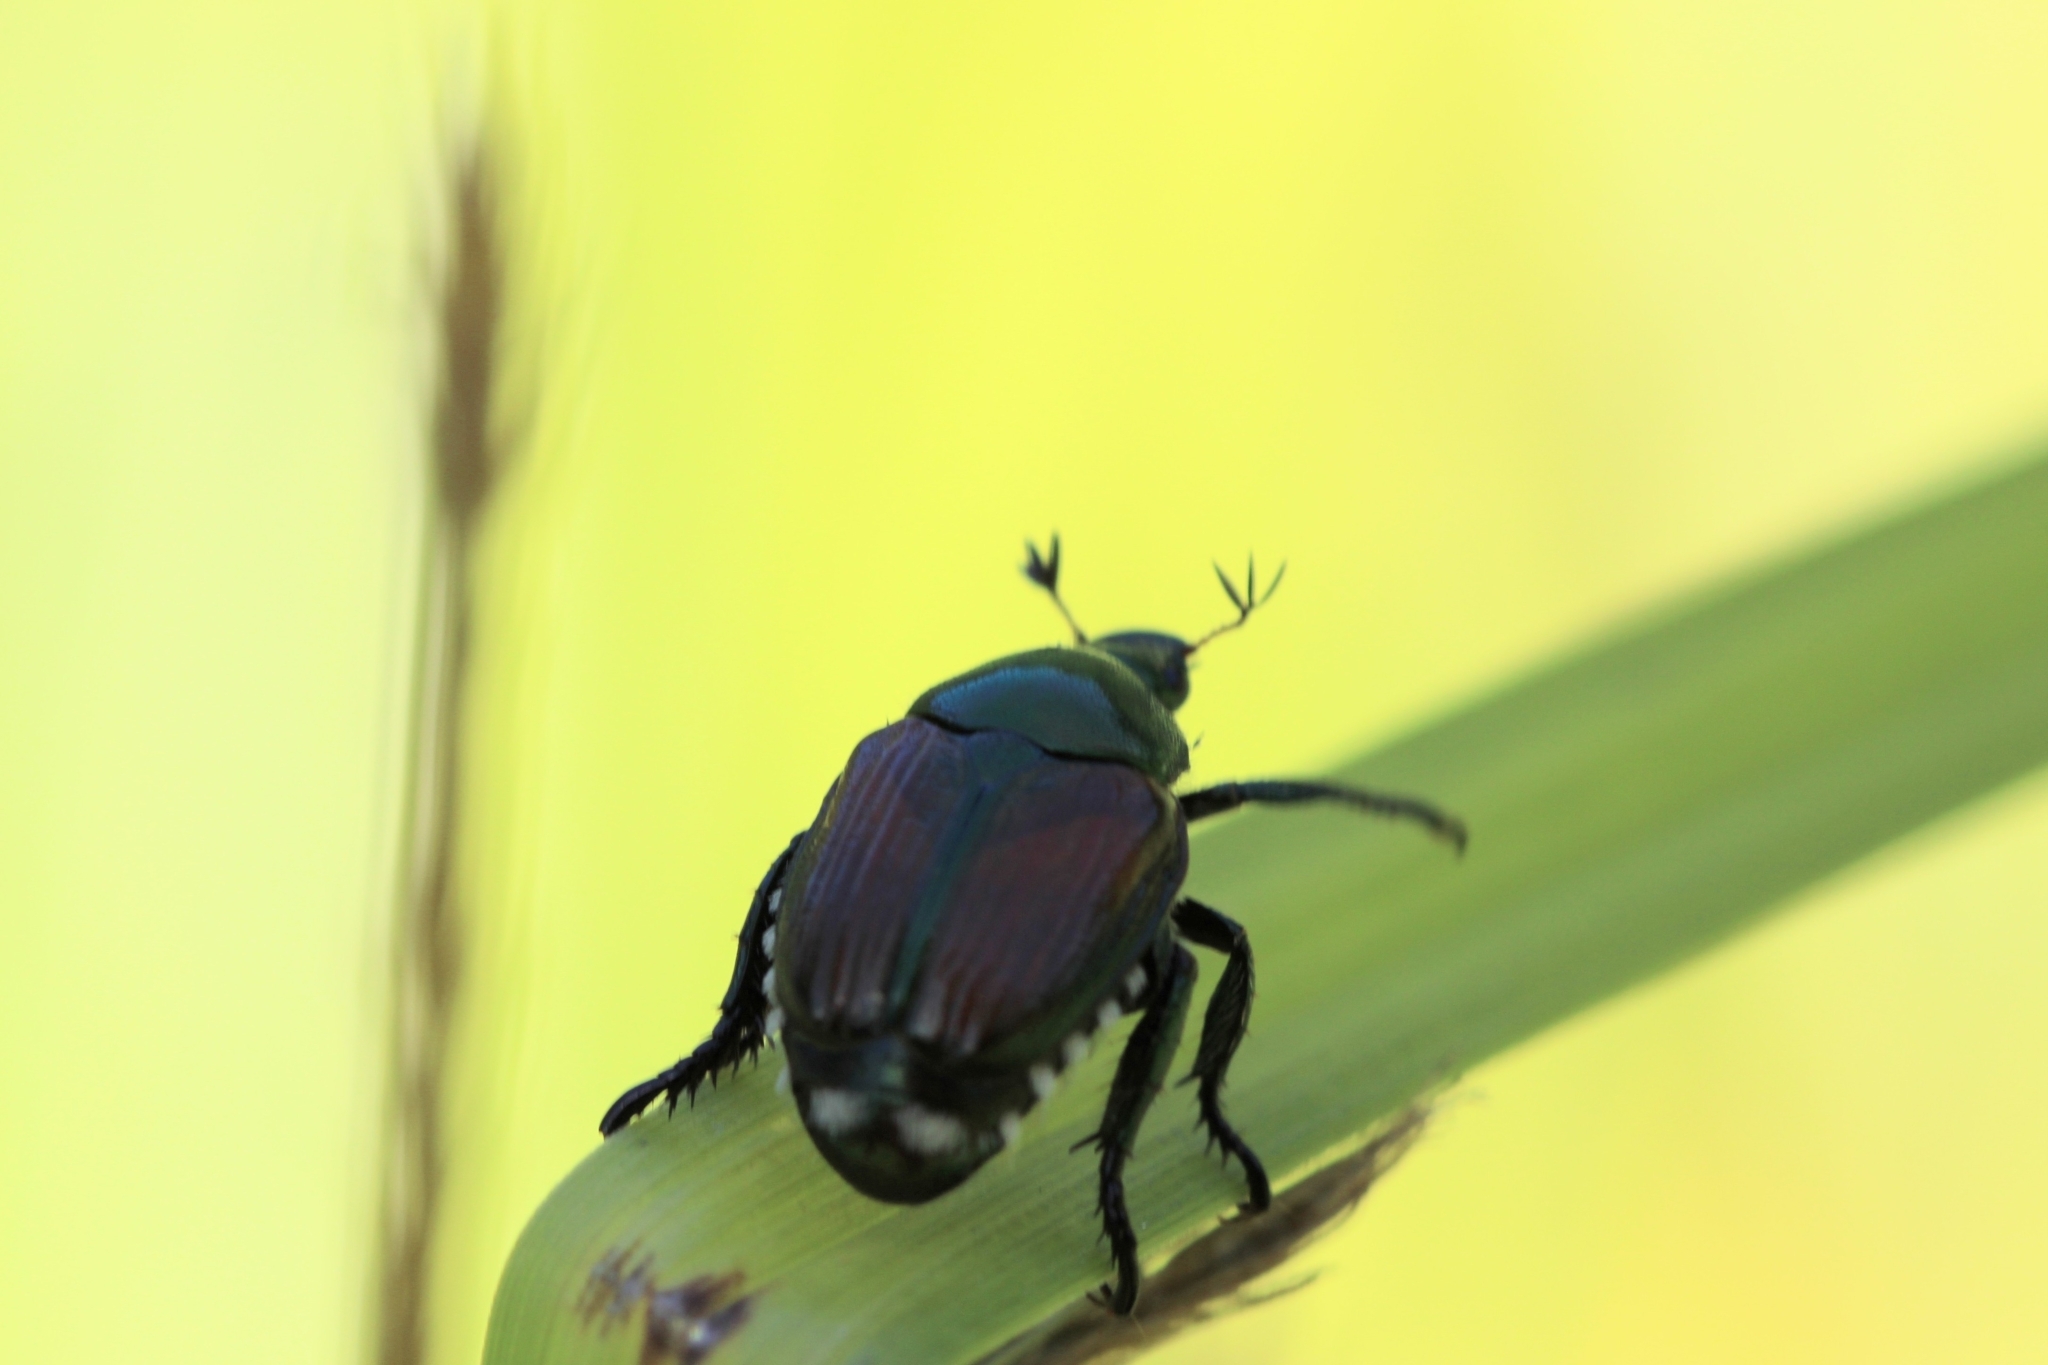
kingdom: Animalia
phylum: Arthropoda
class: Insecta
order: Coleoptera
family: Scarabaeidae
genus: Popillia
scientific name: Popillia japonica
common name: Japanese beetle
